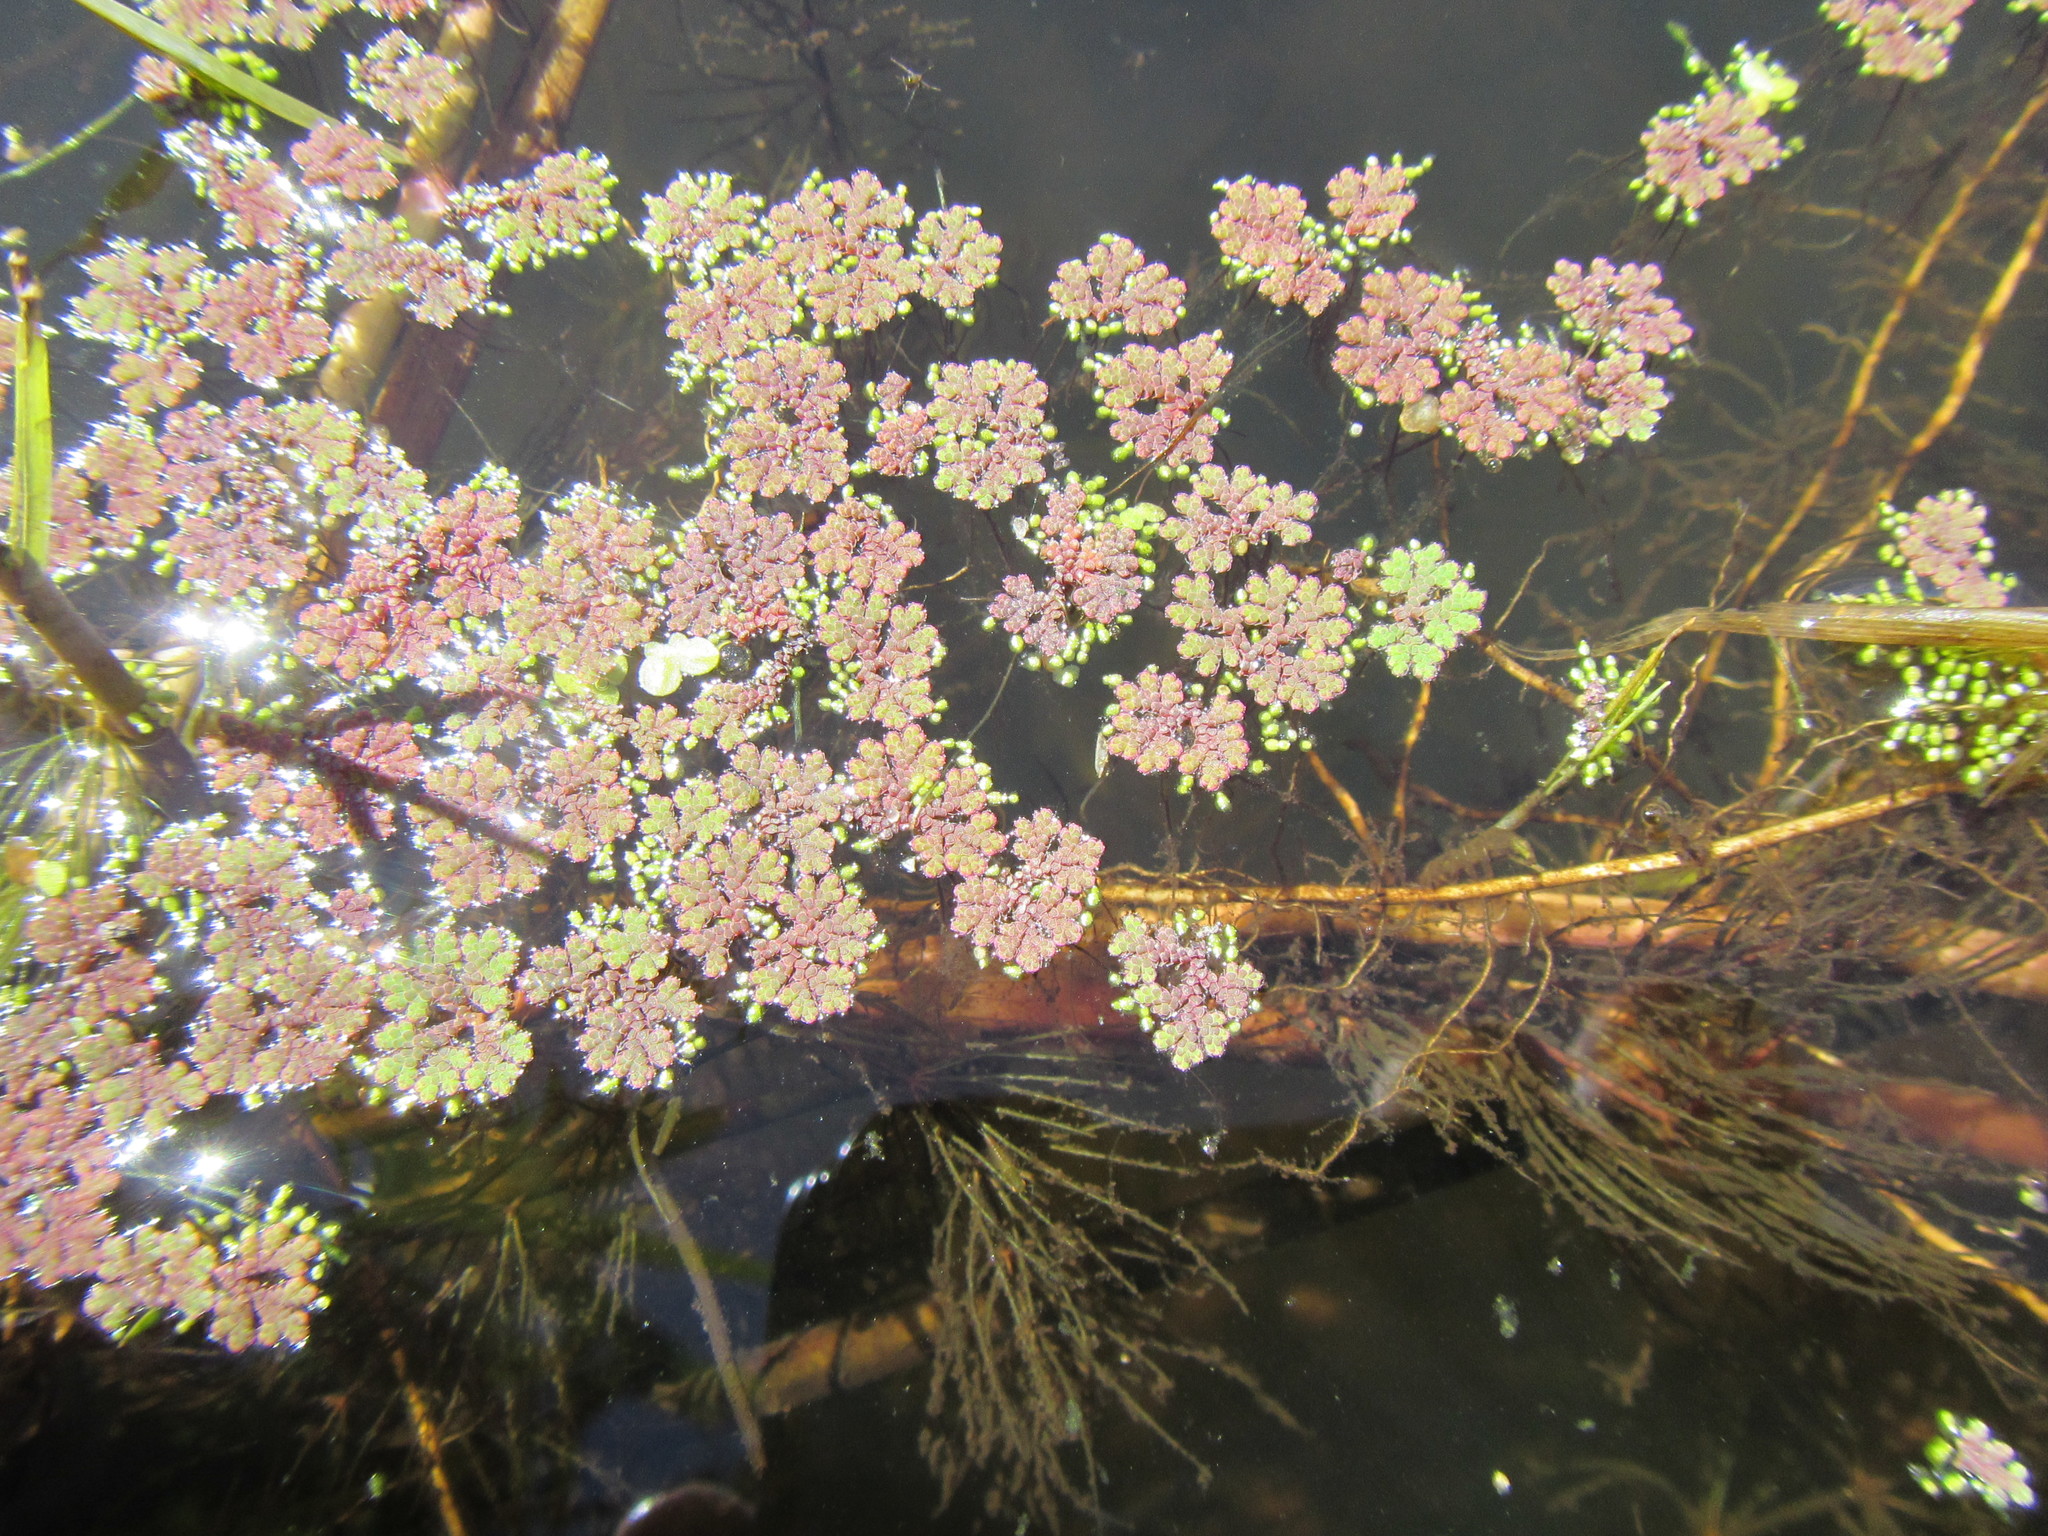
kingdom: Plantae
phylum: Tracheophyta
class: Polypodiopsida
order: Salviniales
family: Salviniaceae
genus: Azolla
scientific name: Azolla filiculoides
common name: Water fern
